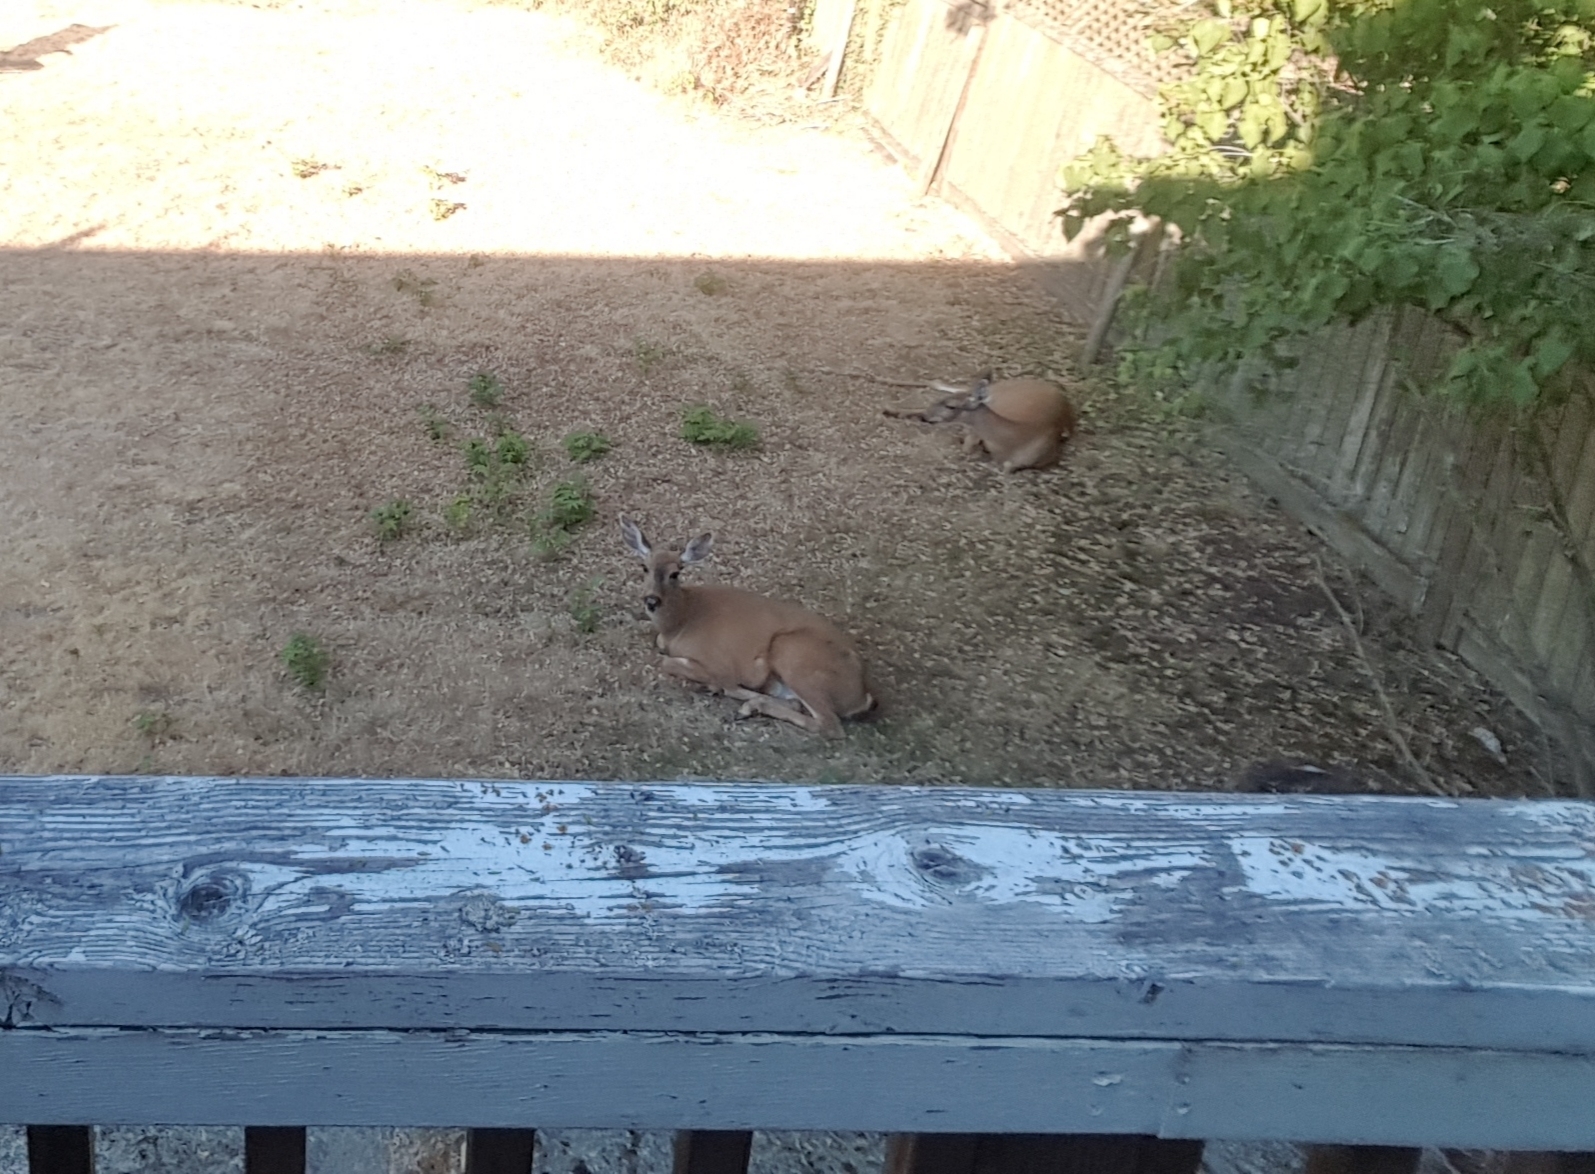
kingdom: Animalia
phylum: Chordata
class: Mammalia
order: Artiodactyla
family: Cervidae
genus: Odocoileus
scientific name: Odocoileus hemionus
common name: Mule deer
